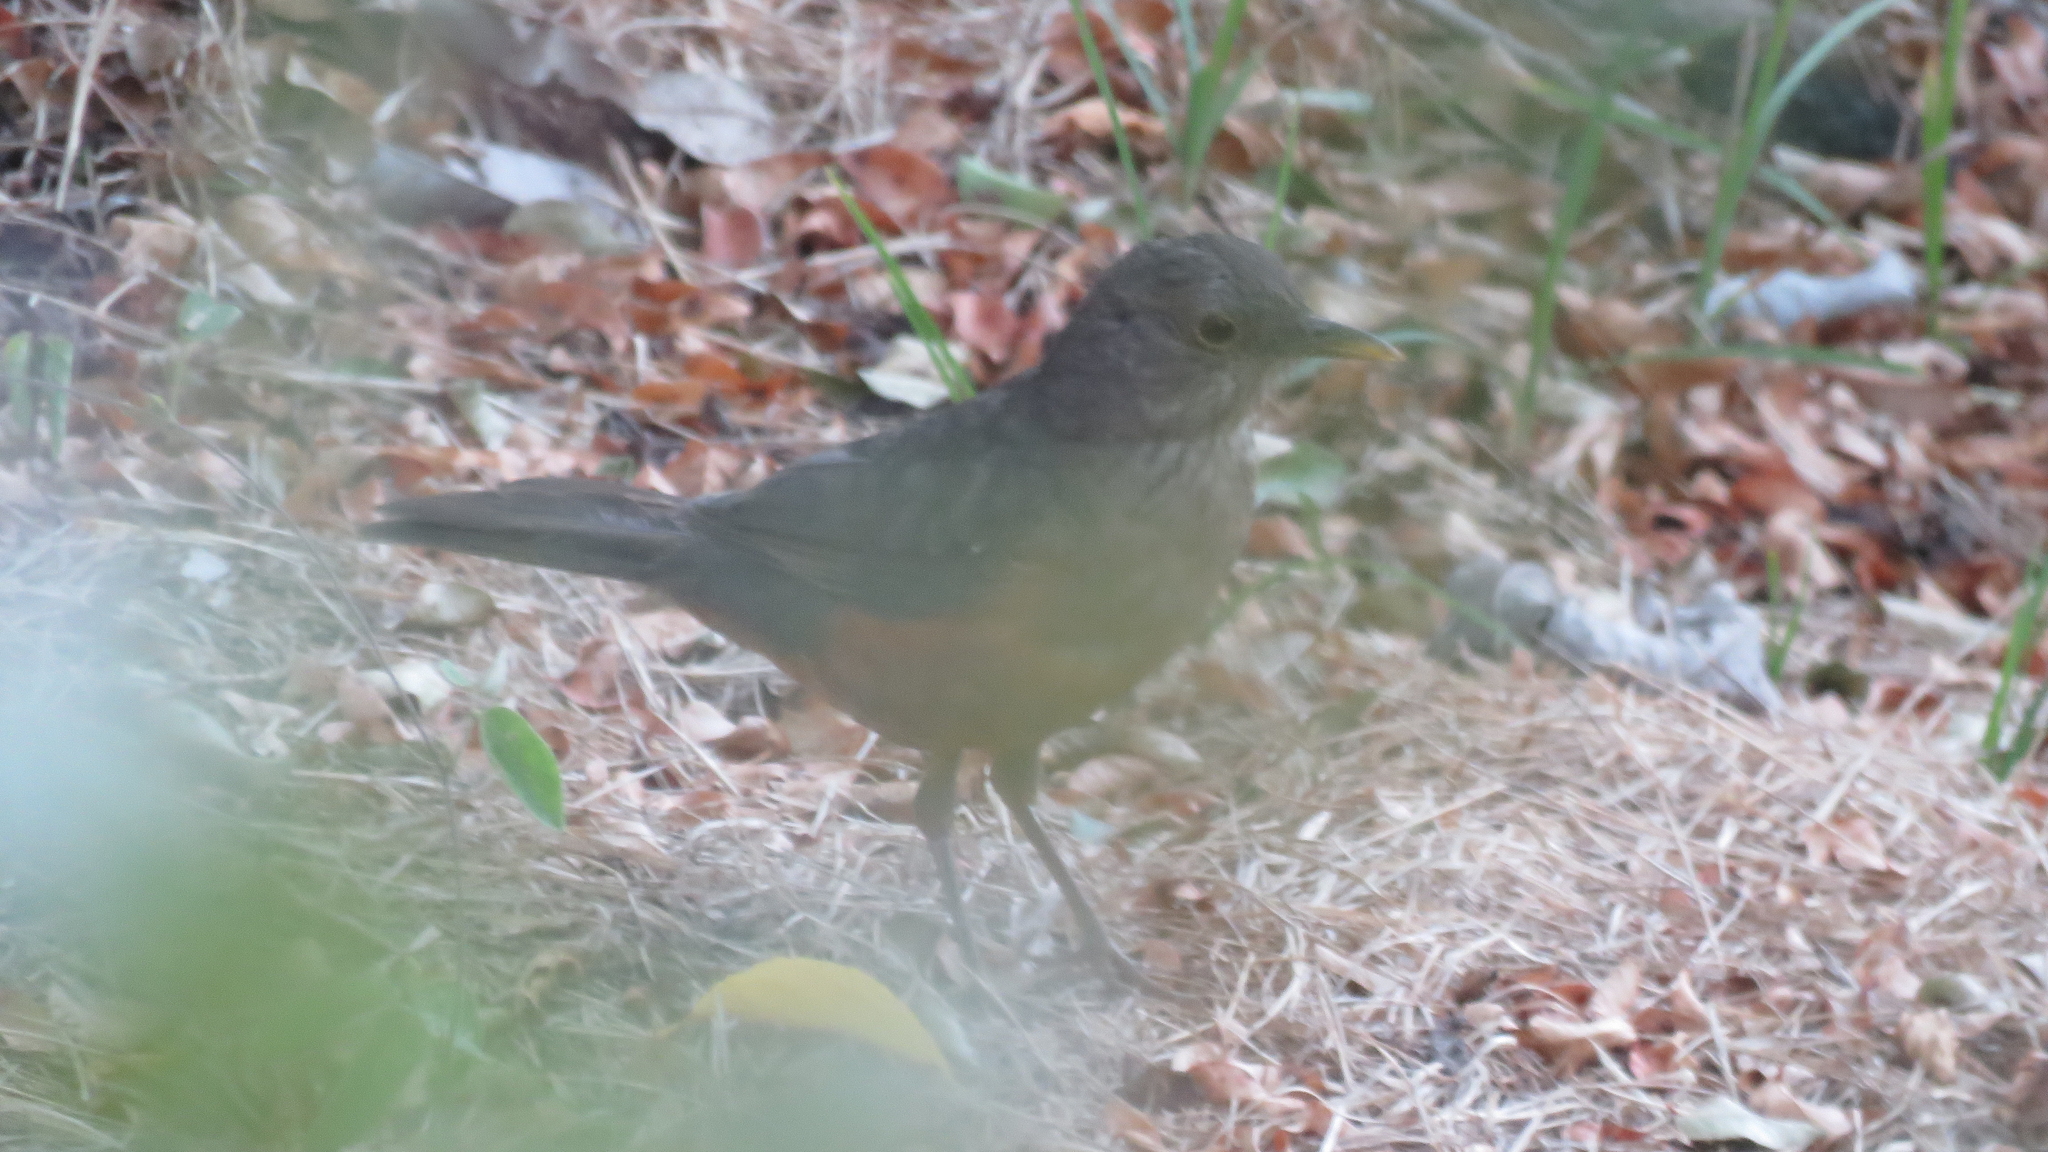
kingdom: Animalia
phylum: Chordata
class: Aves
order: Passeriformes
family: Turdidae
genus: Turdus
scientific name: Turdus rufiventris
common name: Rufous-bellied thrush
